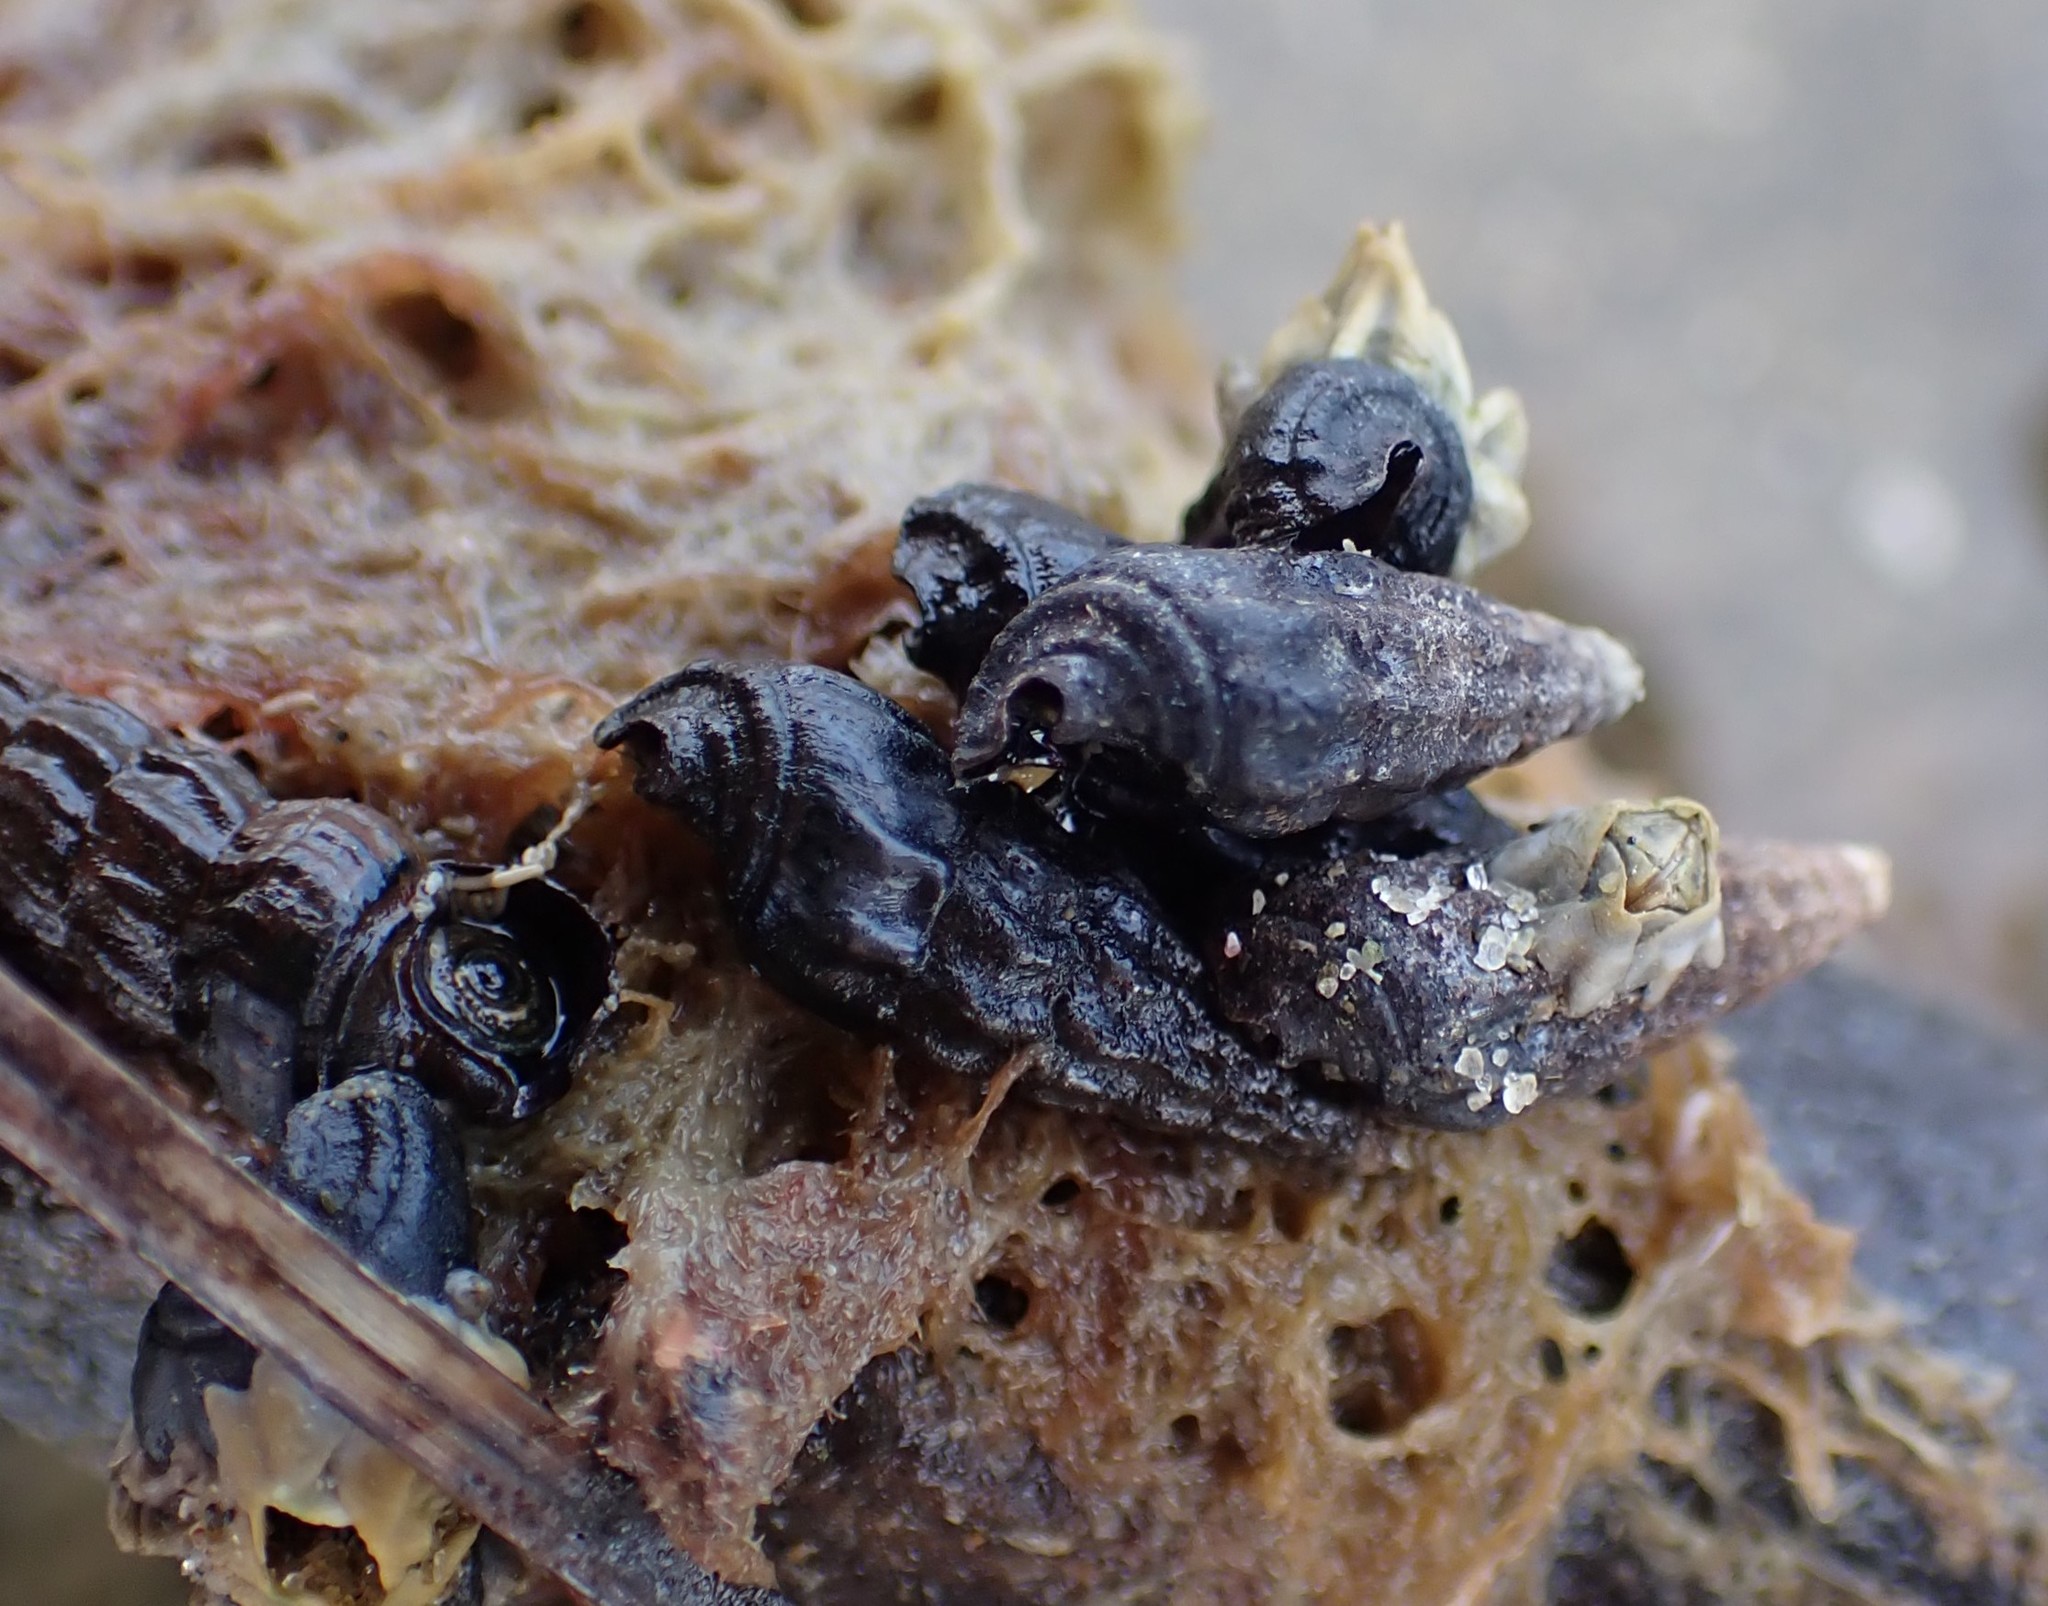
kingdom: Animalia
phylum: Mollusca
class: Gastropoda
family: Batillariidae
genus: Zeacumantus
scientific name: Zeacumantus subcarinatus
